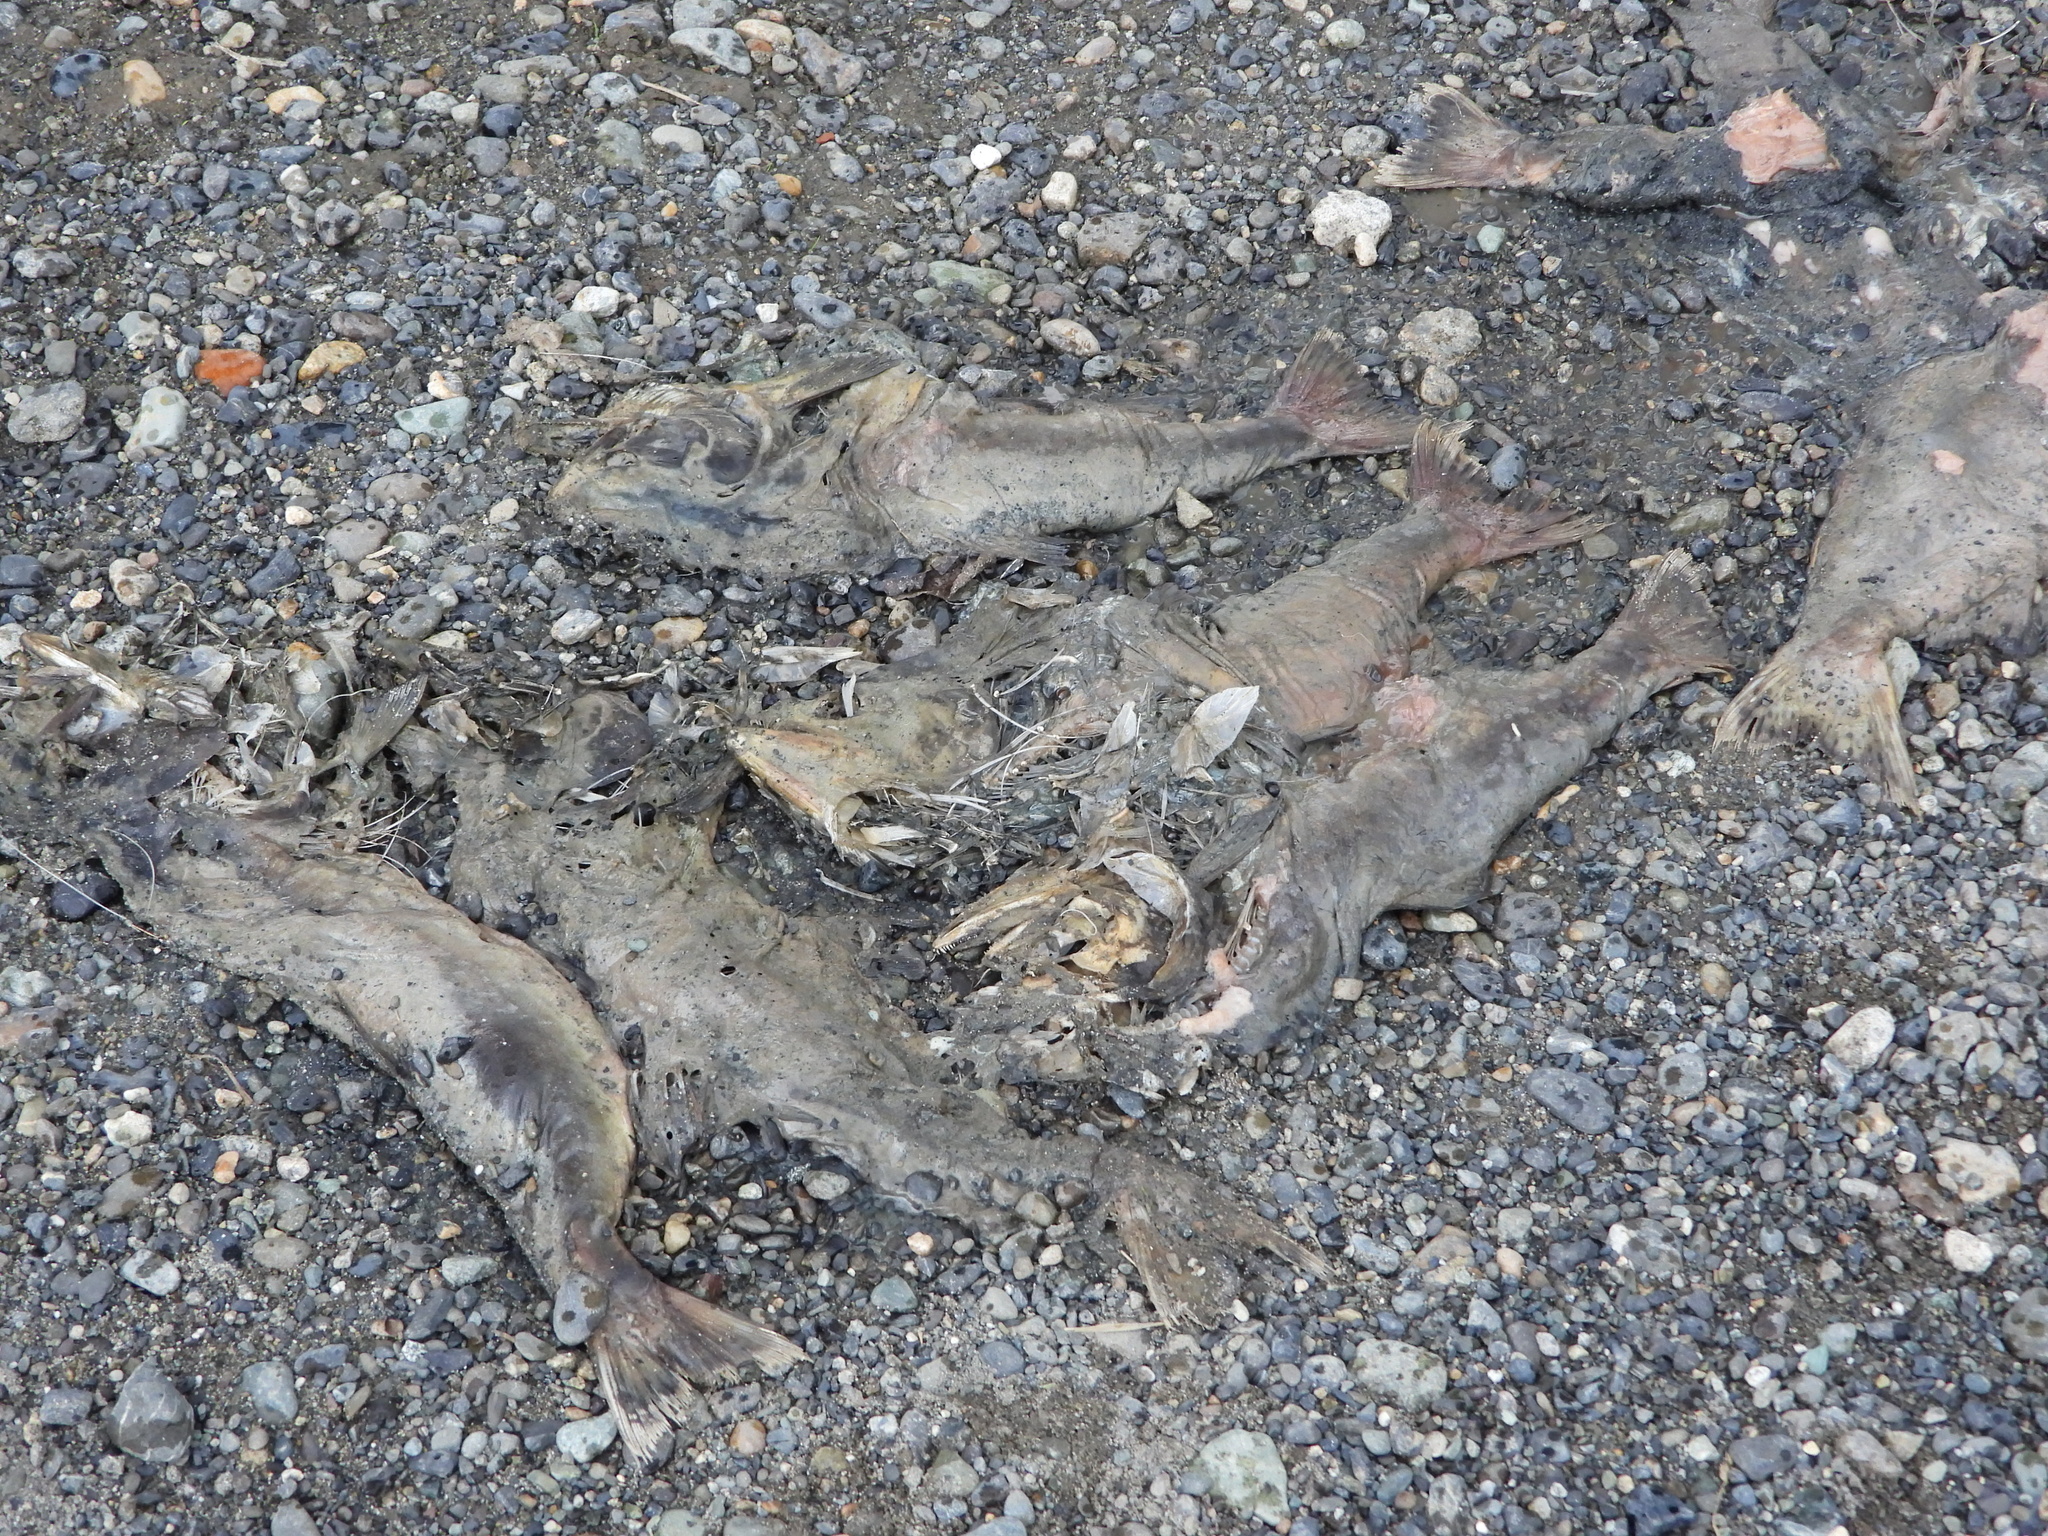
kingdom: Animalia
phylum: Chordata
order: Salmoniformes
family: Salmonidae
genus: Oncorhynchus
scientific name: Oncorhynchus gorbuscha
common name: Humpback salmon
